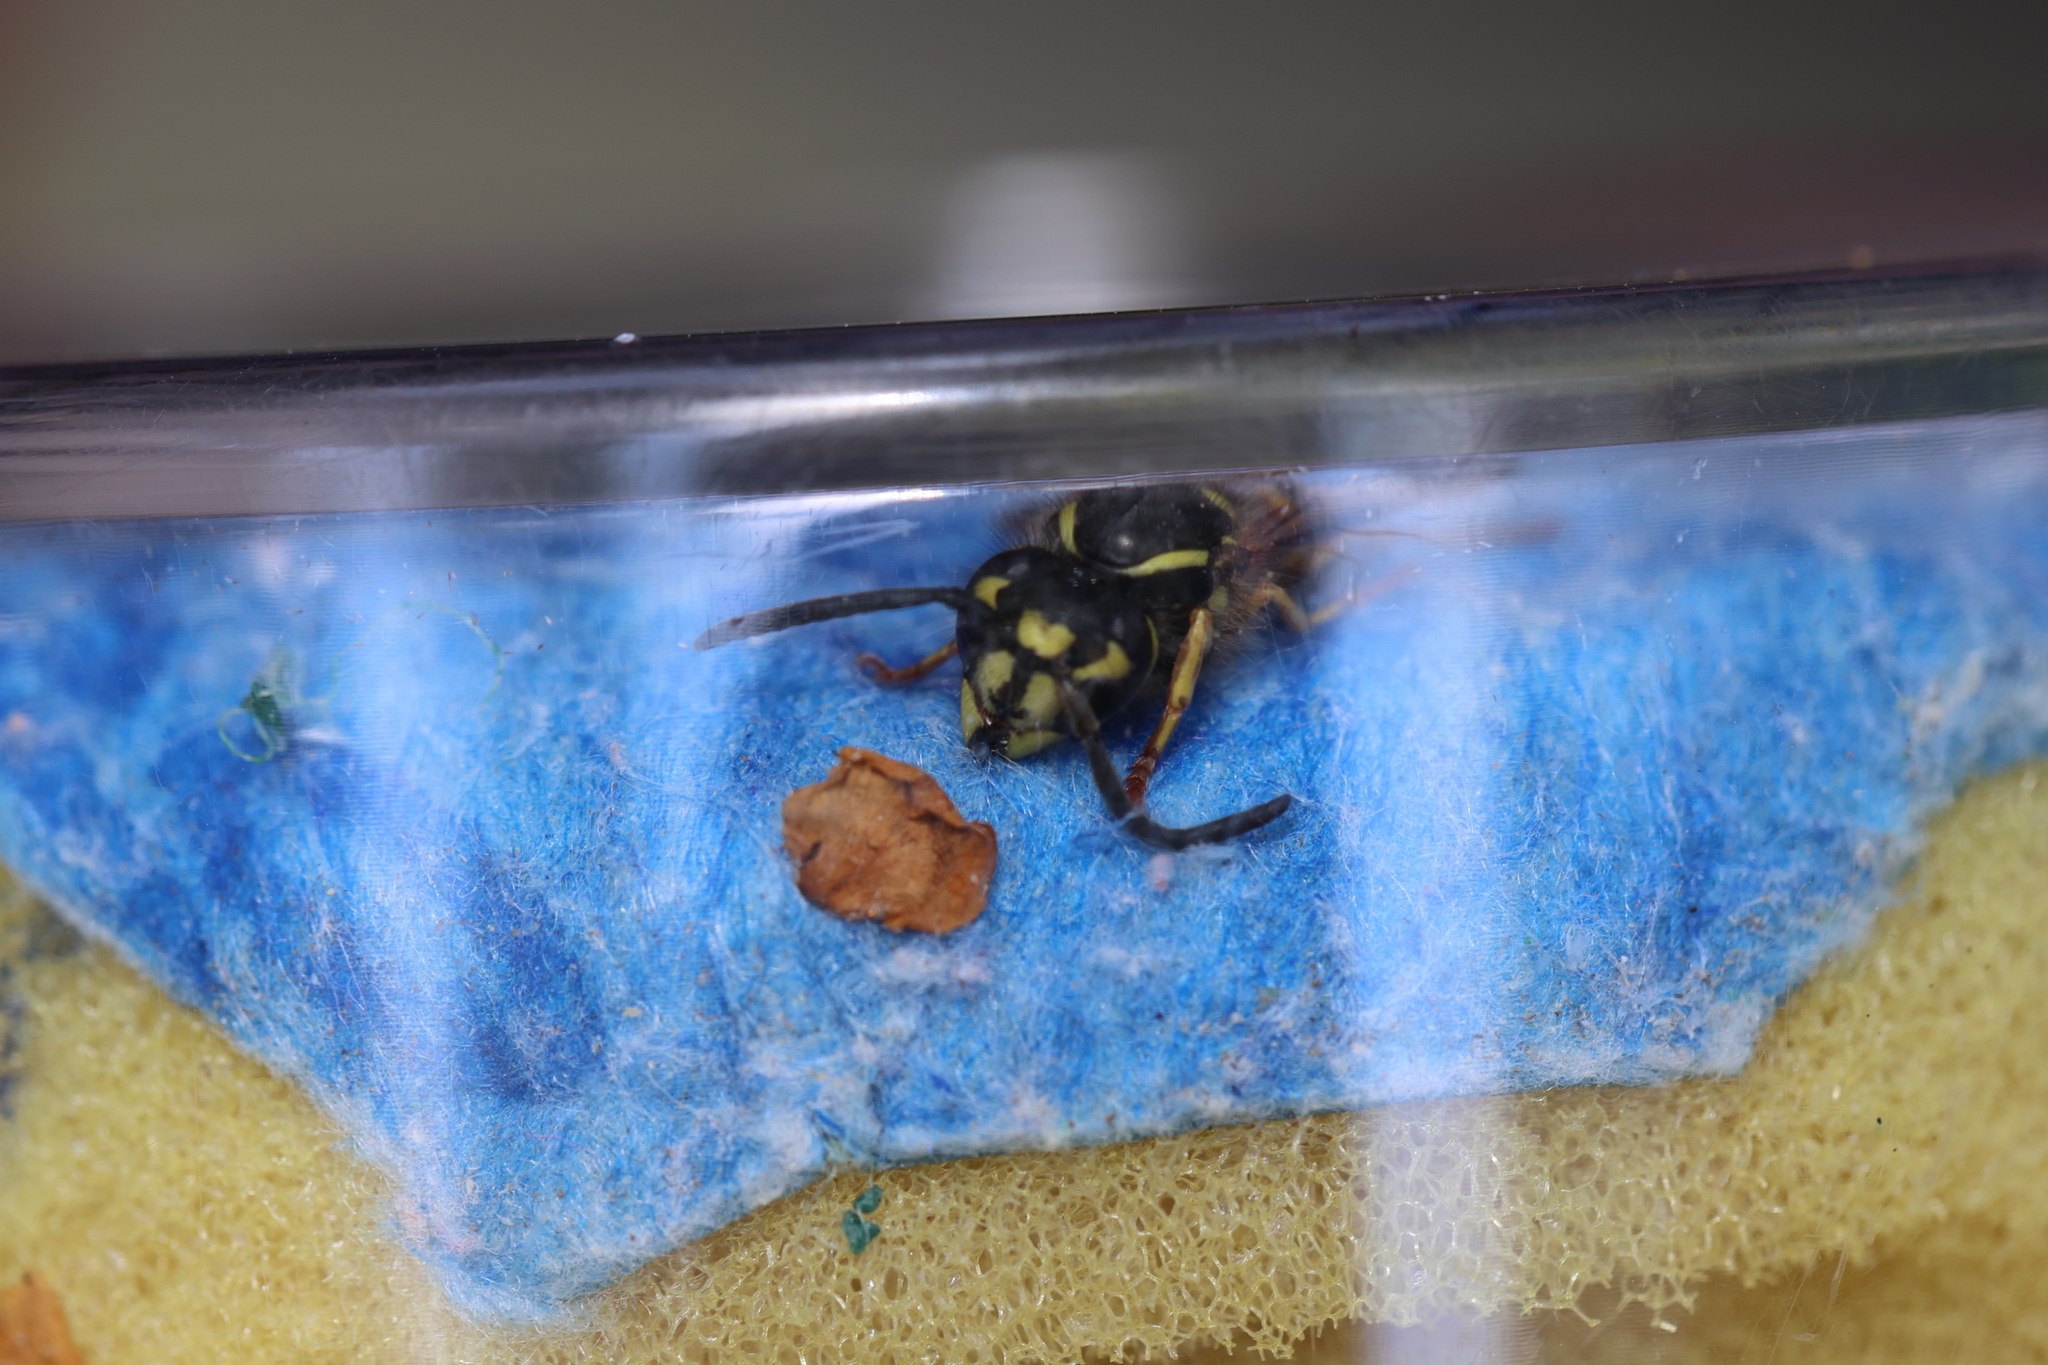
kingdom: Animalia
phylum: Arthropoda
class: Insecta
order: Hymenoptera
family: Vespidae
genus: Vespula
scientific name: Vespula vulgaris
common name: Common wasp
